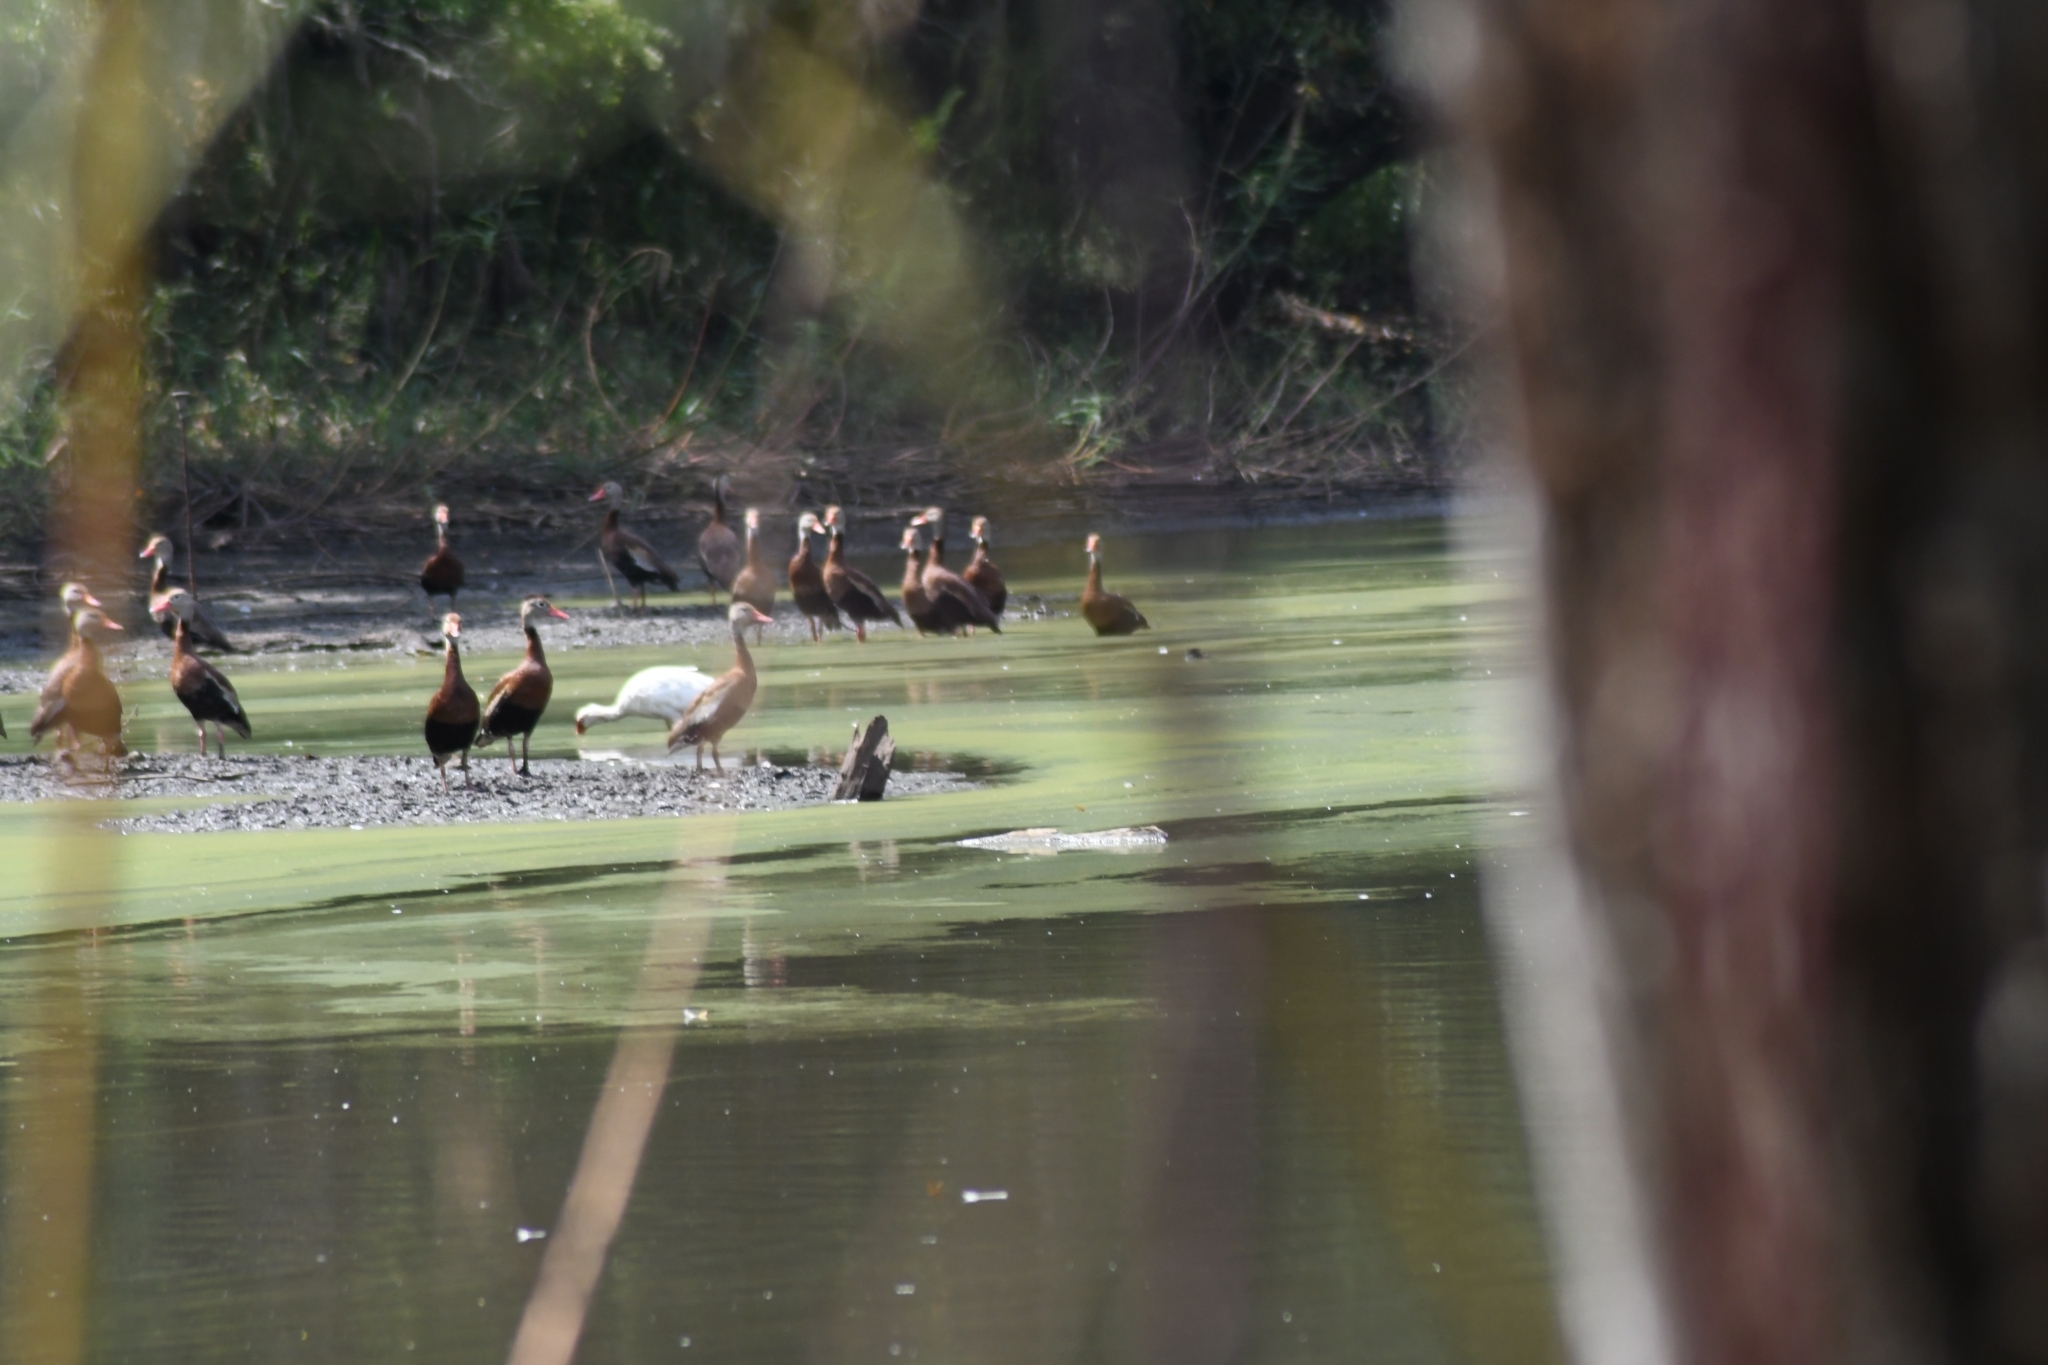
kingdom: Animalia
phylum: Chordata
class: Aves
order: Anseriformes
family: Anatidae
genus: Dendrocygna
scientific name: Dendrocygna autumnalis
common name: Black-bellied whistling duck
